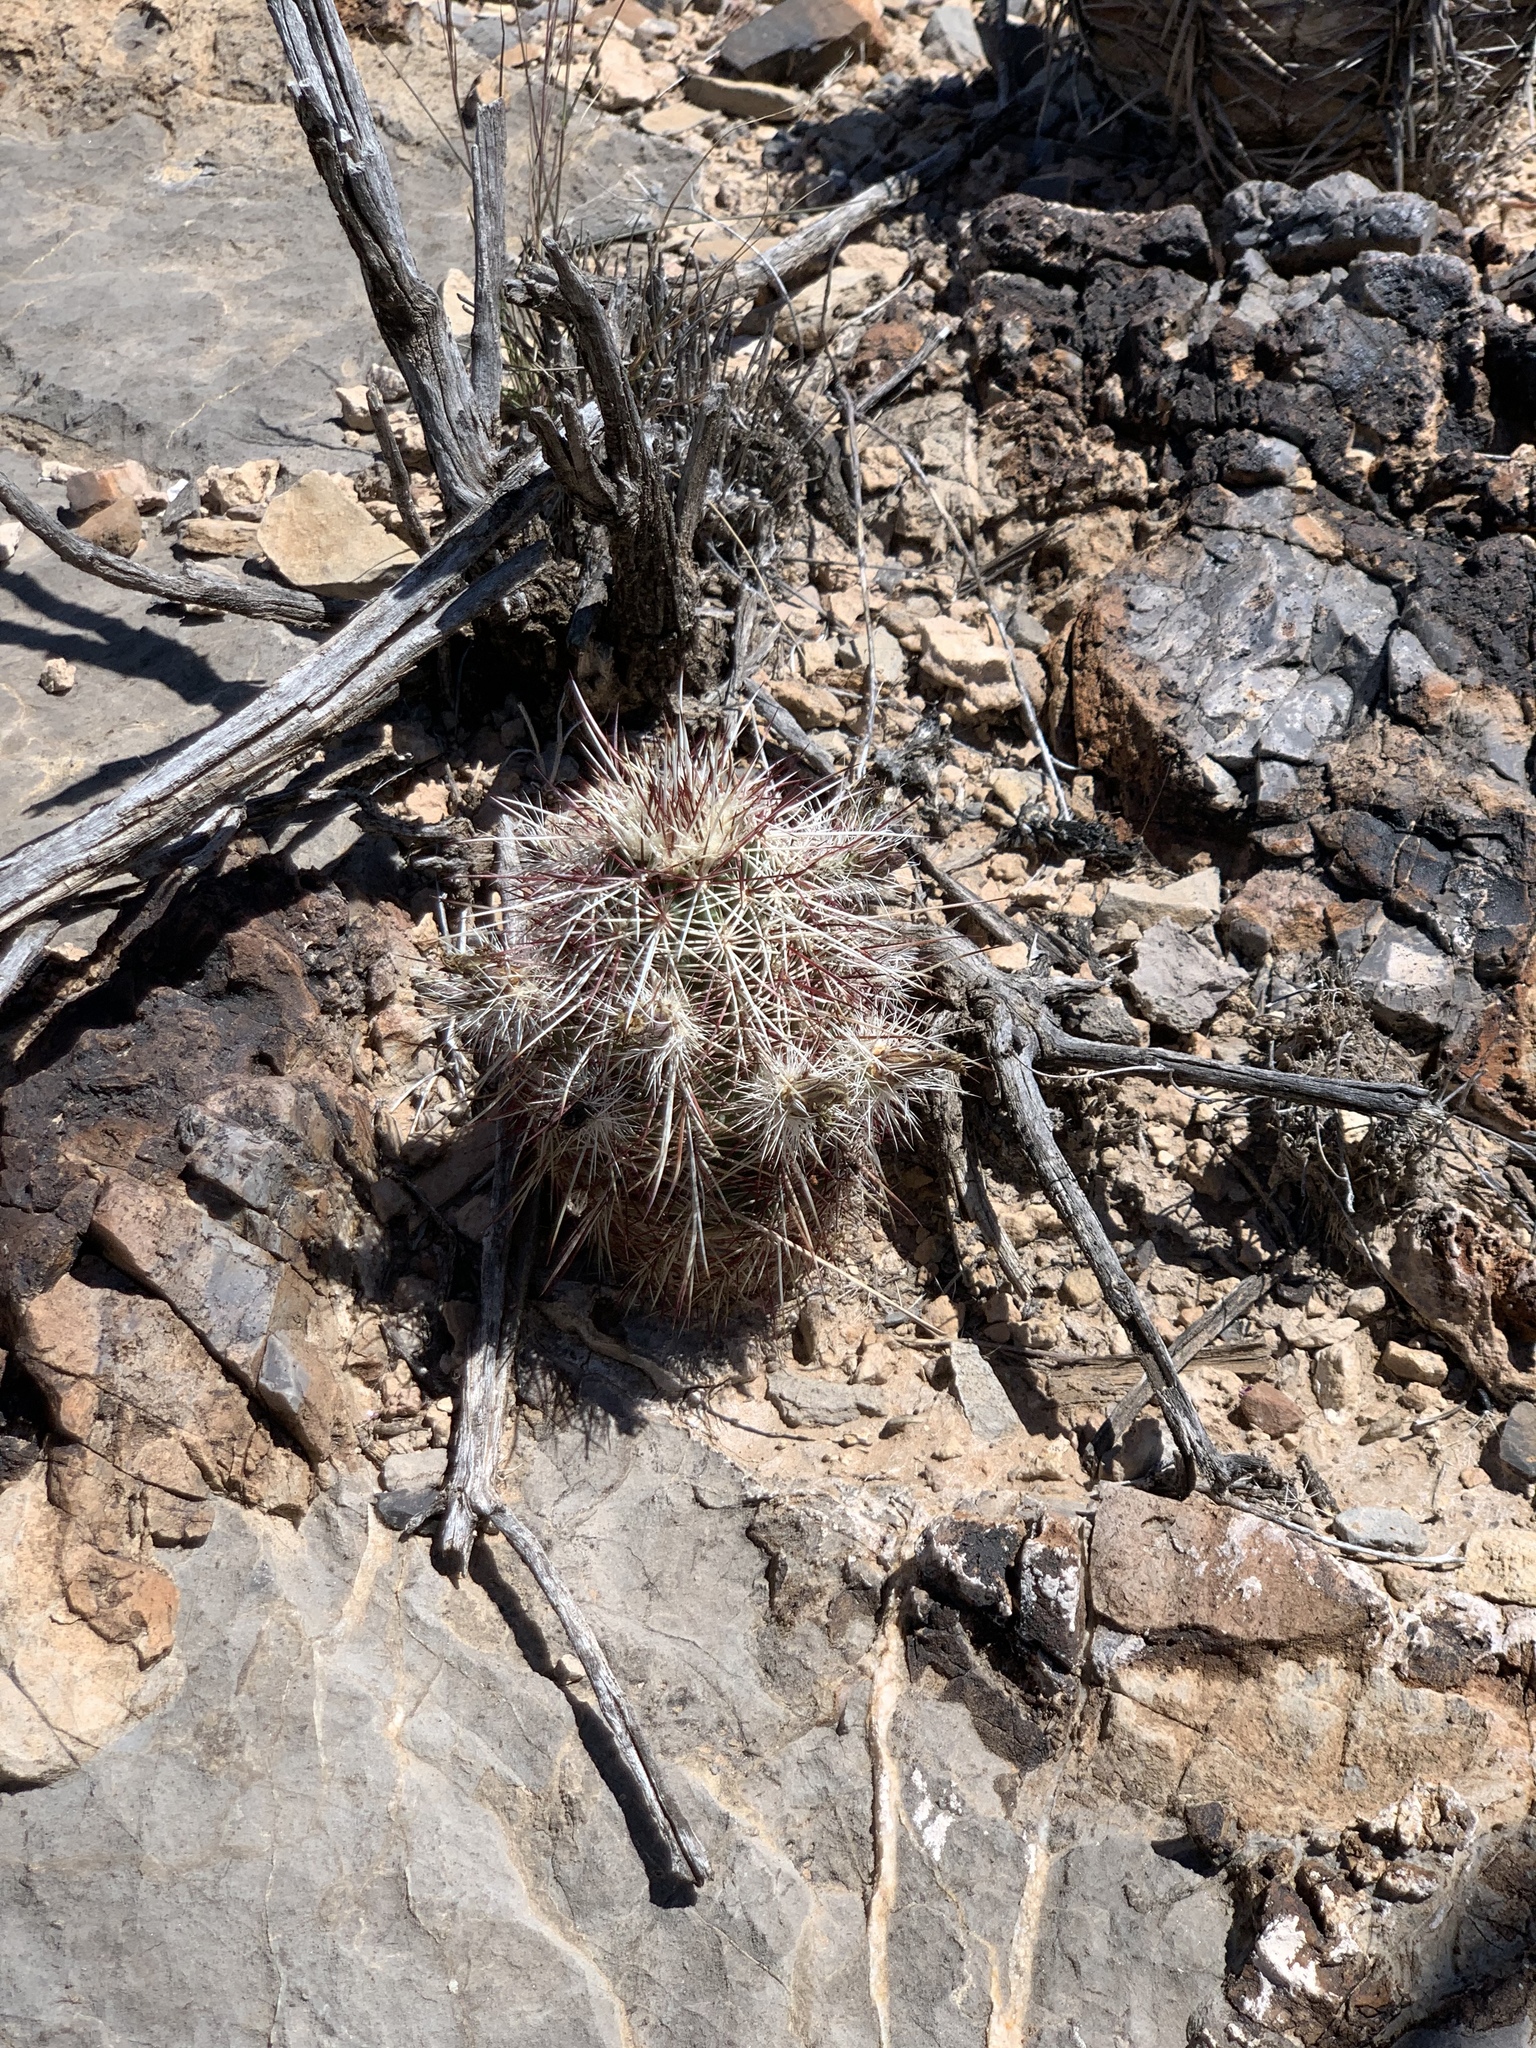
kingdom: Plantae
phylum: Tracheophyta
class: Magnoliopsida
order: Caryophyllales
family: Cactaceae
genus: Echinocereus
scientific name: Echinocereus viridiflorus
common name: Nylon hedgehog cactus
